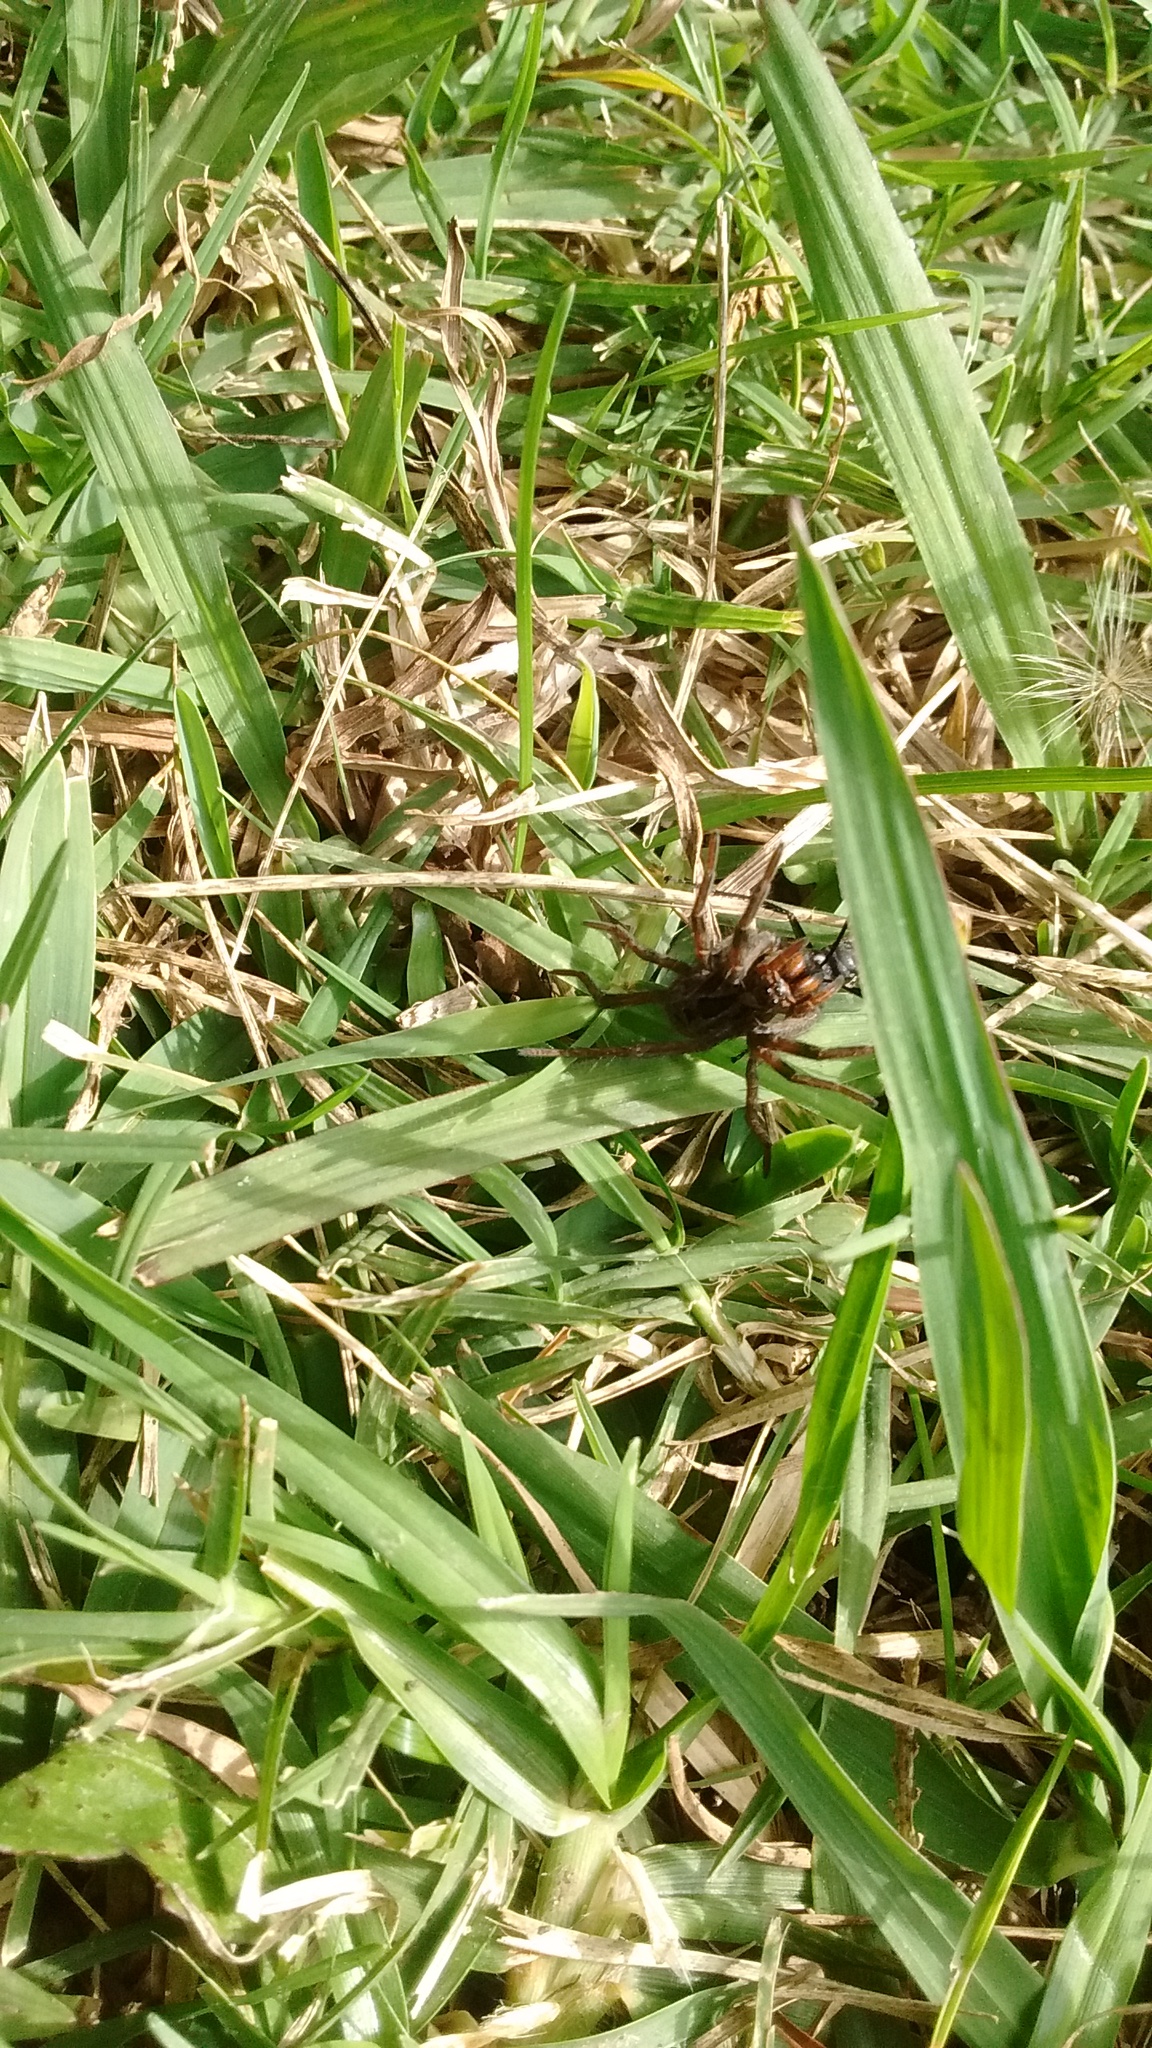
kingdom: Animalia
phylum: Arthropoda
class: Arachnida
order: Araneae
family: Lycosidae
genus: Lycosa
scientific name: Lycosa erythrognatha
